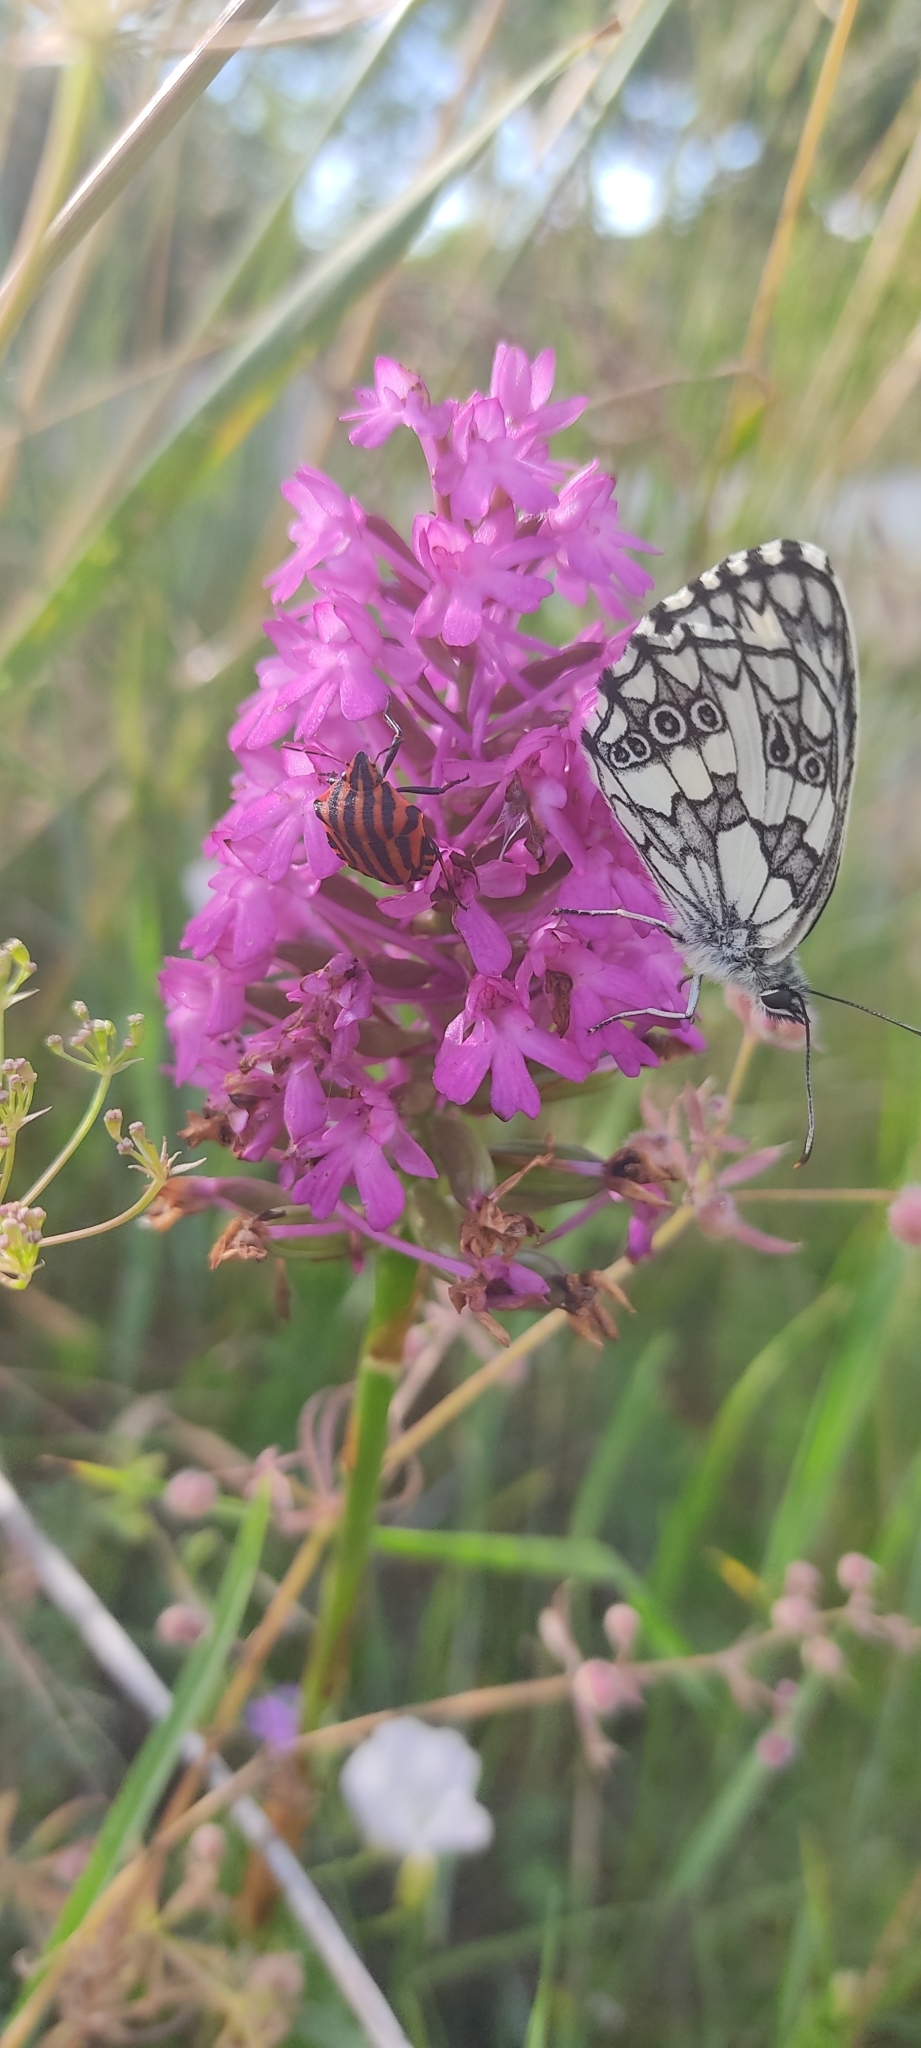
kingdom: Animalia
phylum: Arthropoda
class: Insecta
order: Lepidoptera
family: Nymphalidae
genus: Melanargia
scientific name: Melanargia galathea
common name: Marbled white
